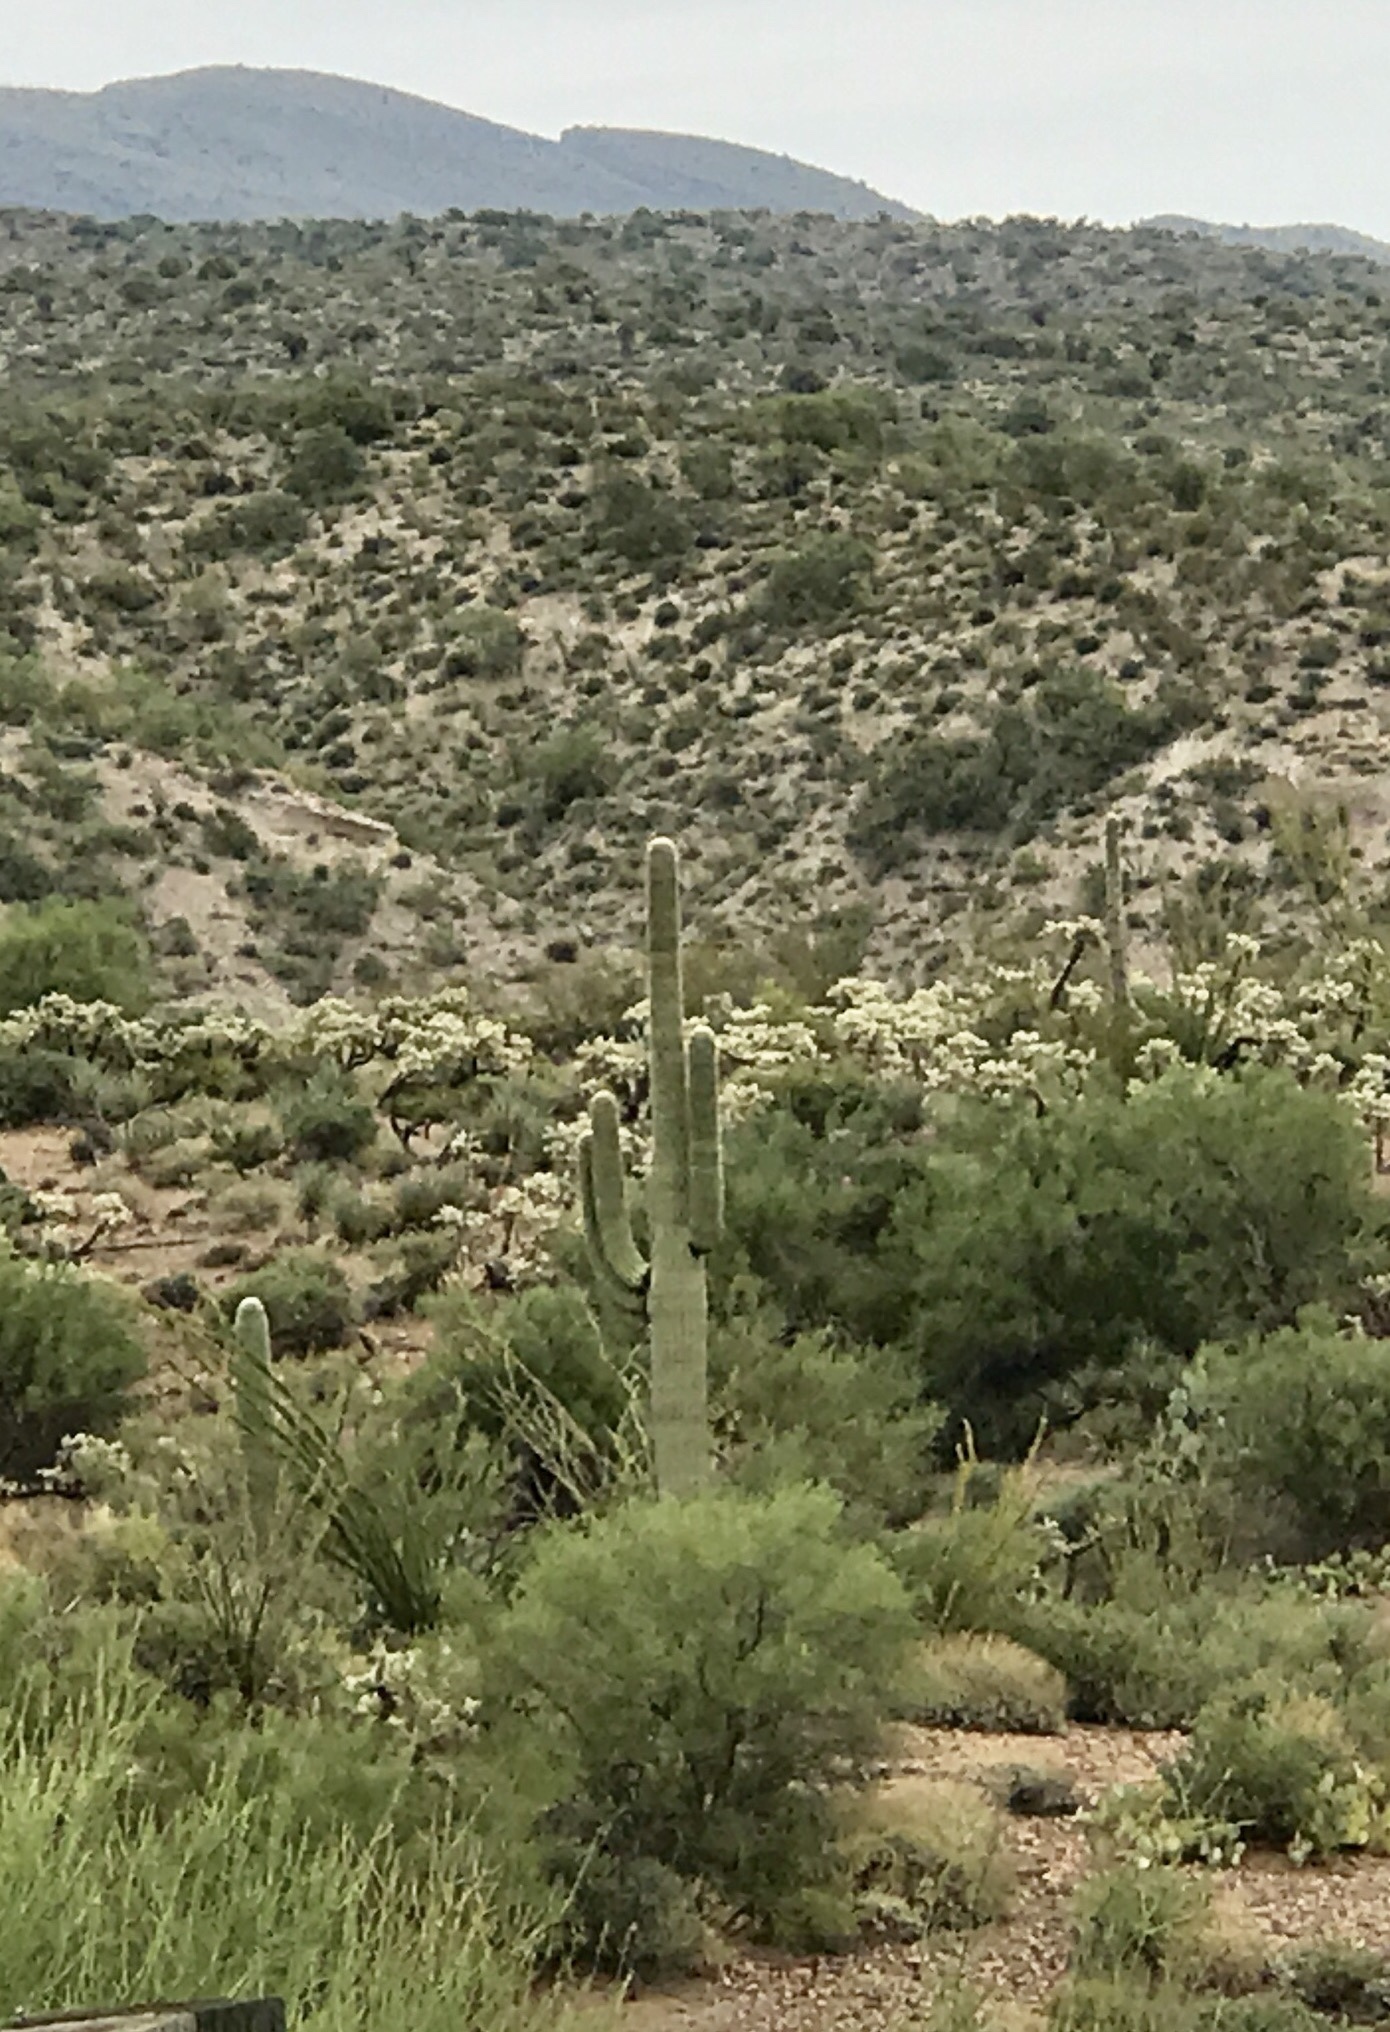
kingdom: Plantae
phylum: Tracheophyta
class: Magnoliopsida
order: Caryophyllales
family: Cactaceae
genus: Carnegiea
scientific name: Carnegiea gigantea
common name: Saguaro
